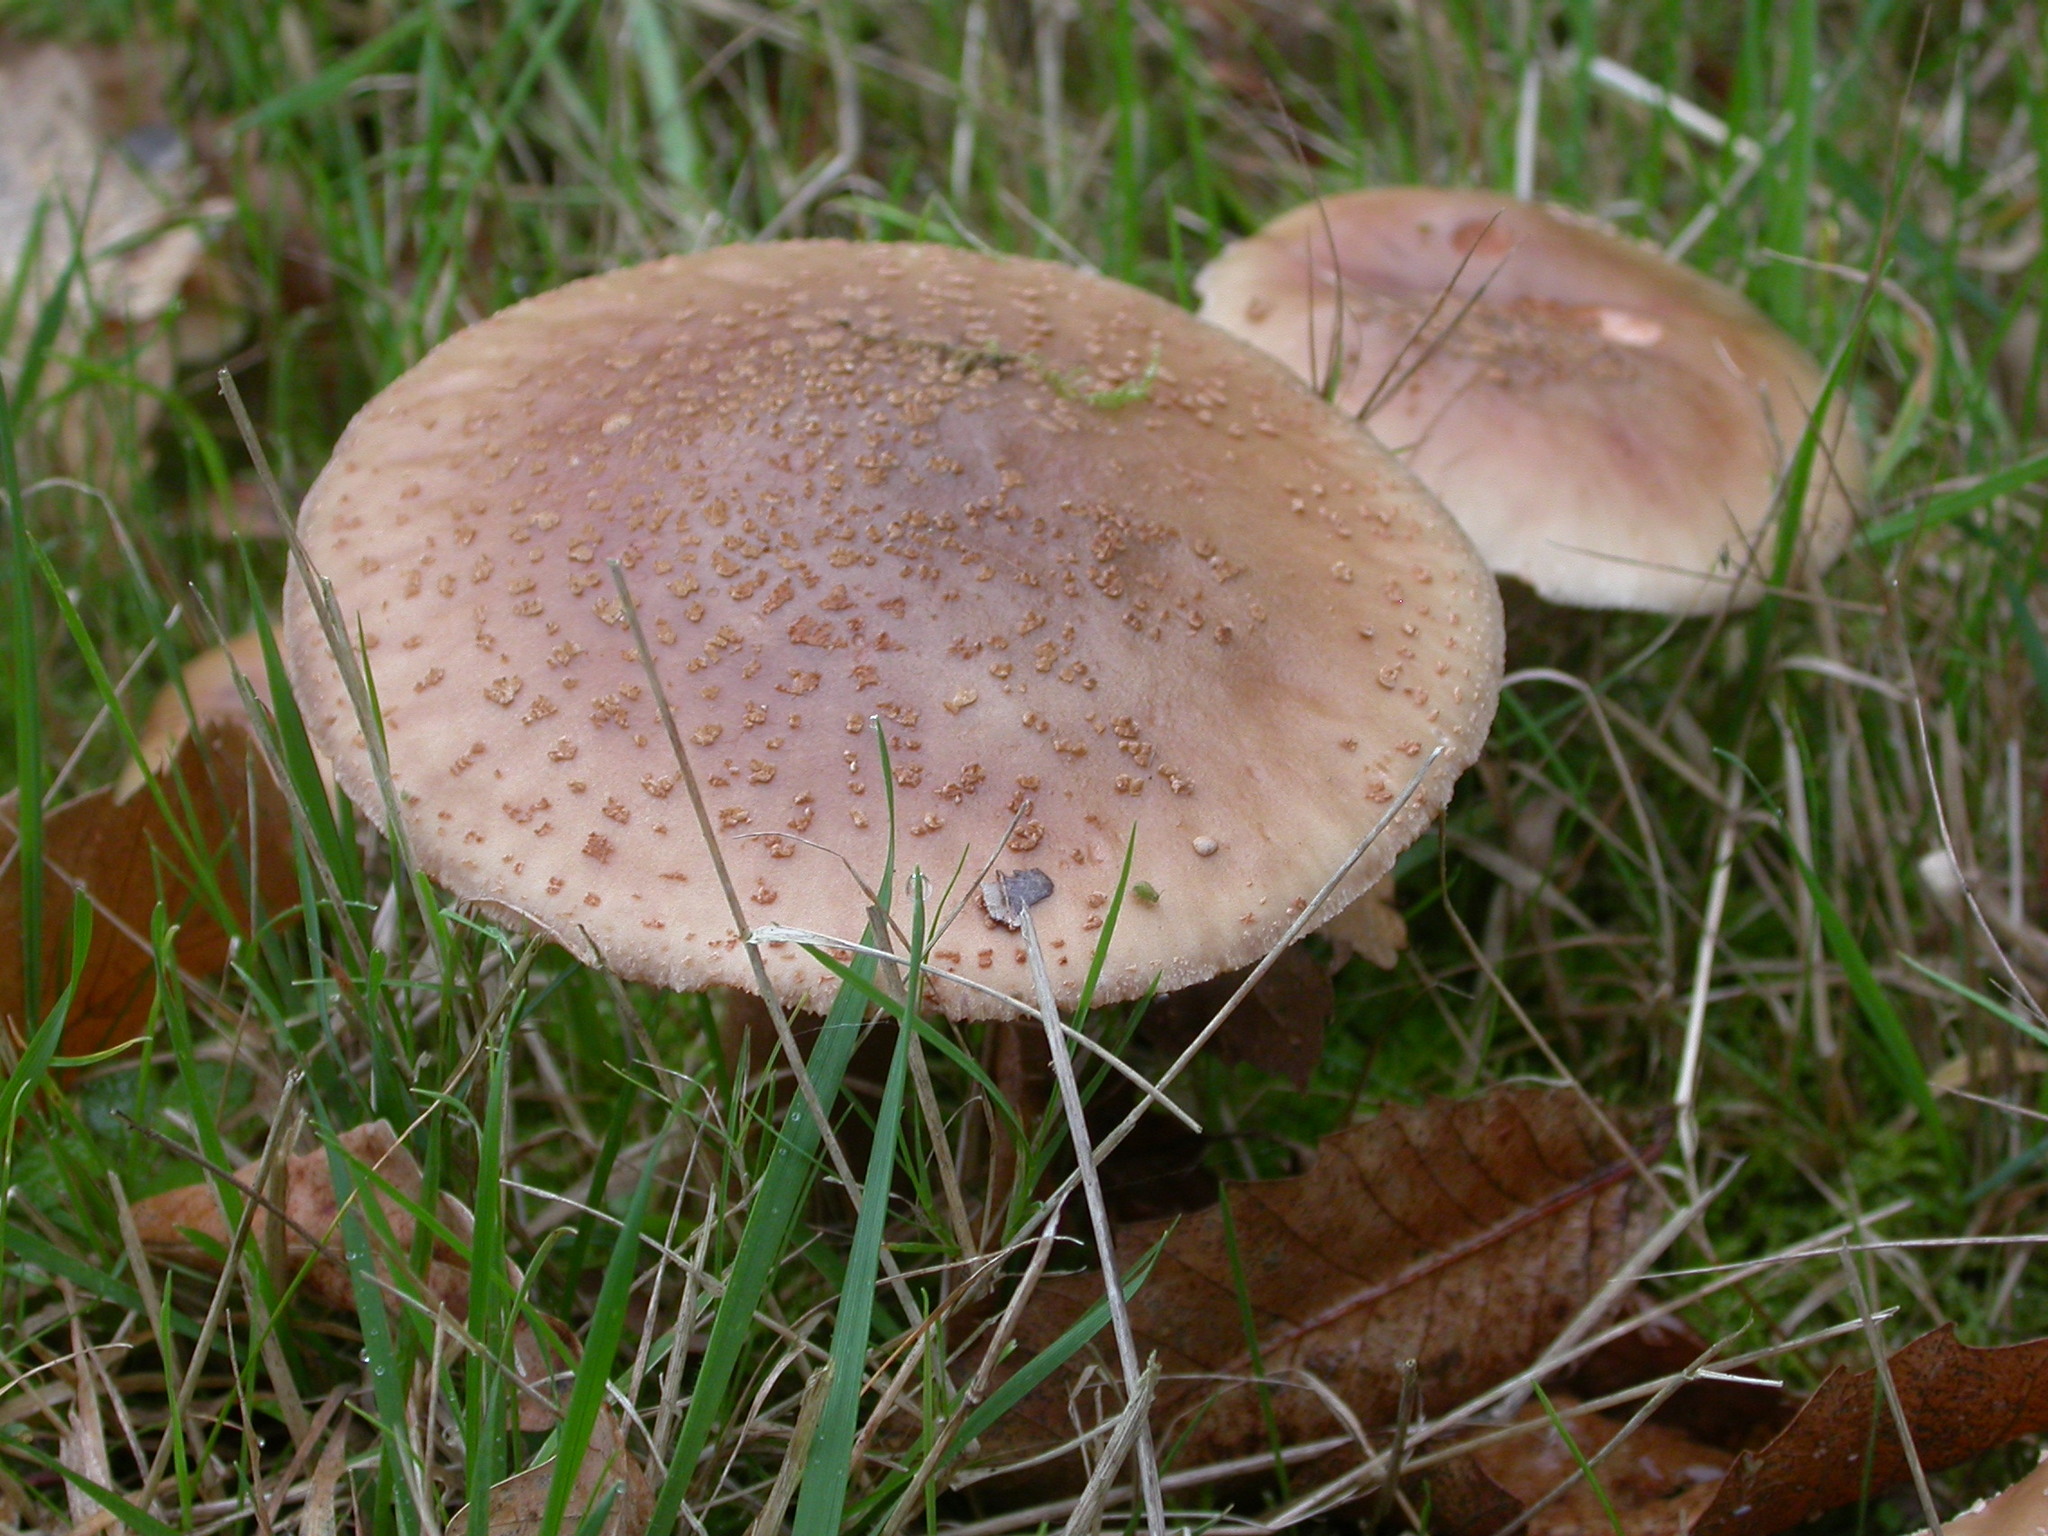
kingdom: Fungi
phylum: Basidiomycota
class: Agaricomycetes
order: Agaricales
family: Amanitaceae
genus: Amanita
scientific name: Amanita rubescens
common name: Blusher
